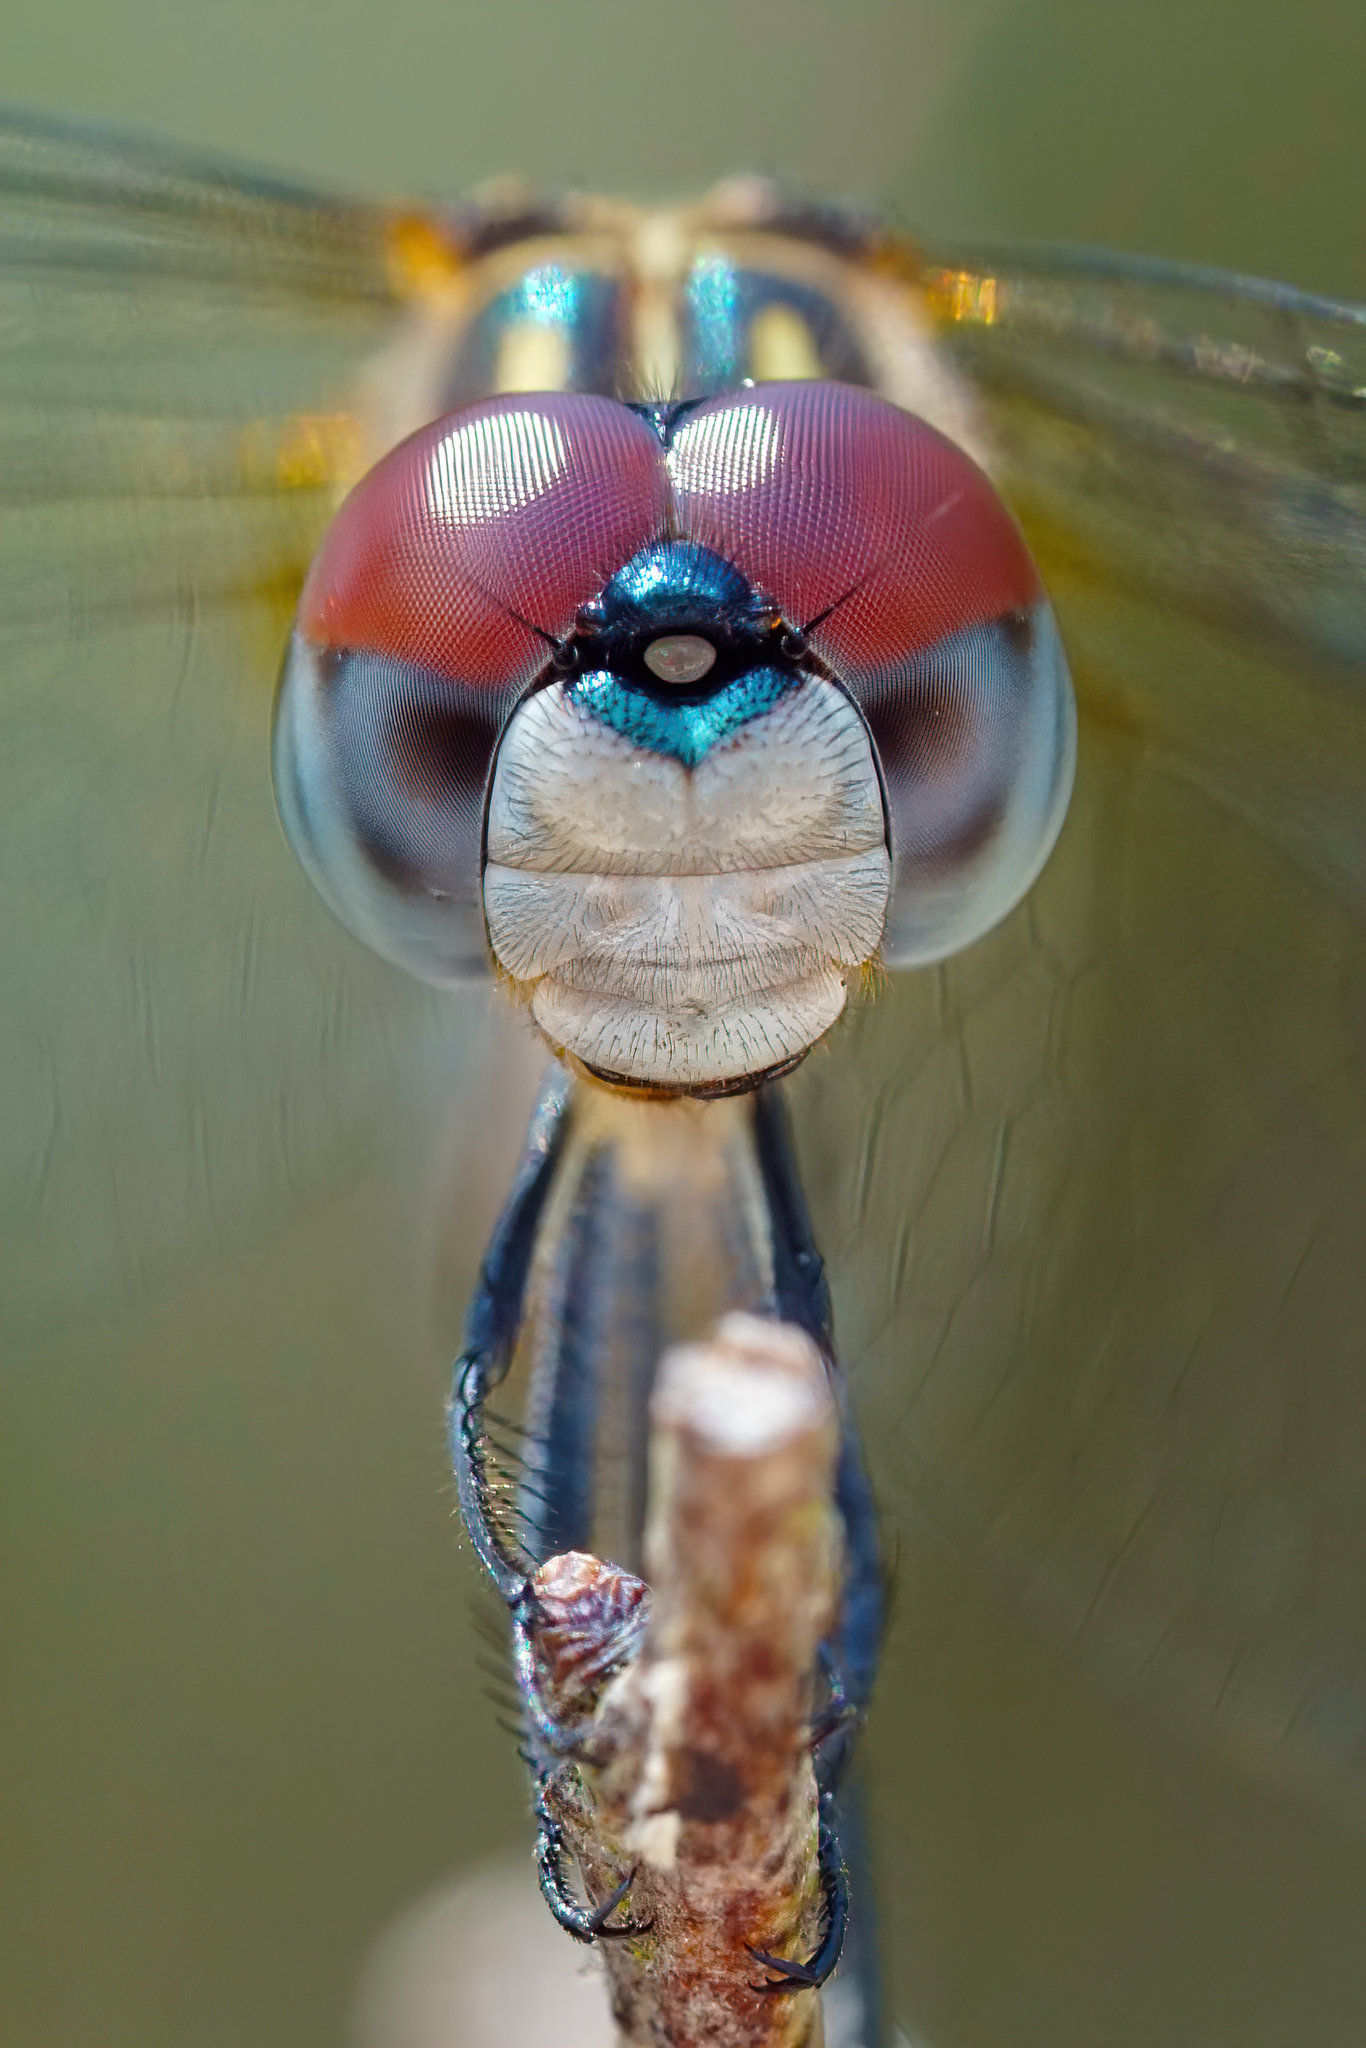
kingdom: Animalia
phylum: Arthropoda
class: Insecta
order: Odonata
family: Libellulidae
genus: Pachydiplax
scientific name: Pachydiplax longipennis
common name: Blue dasher
